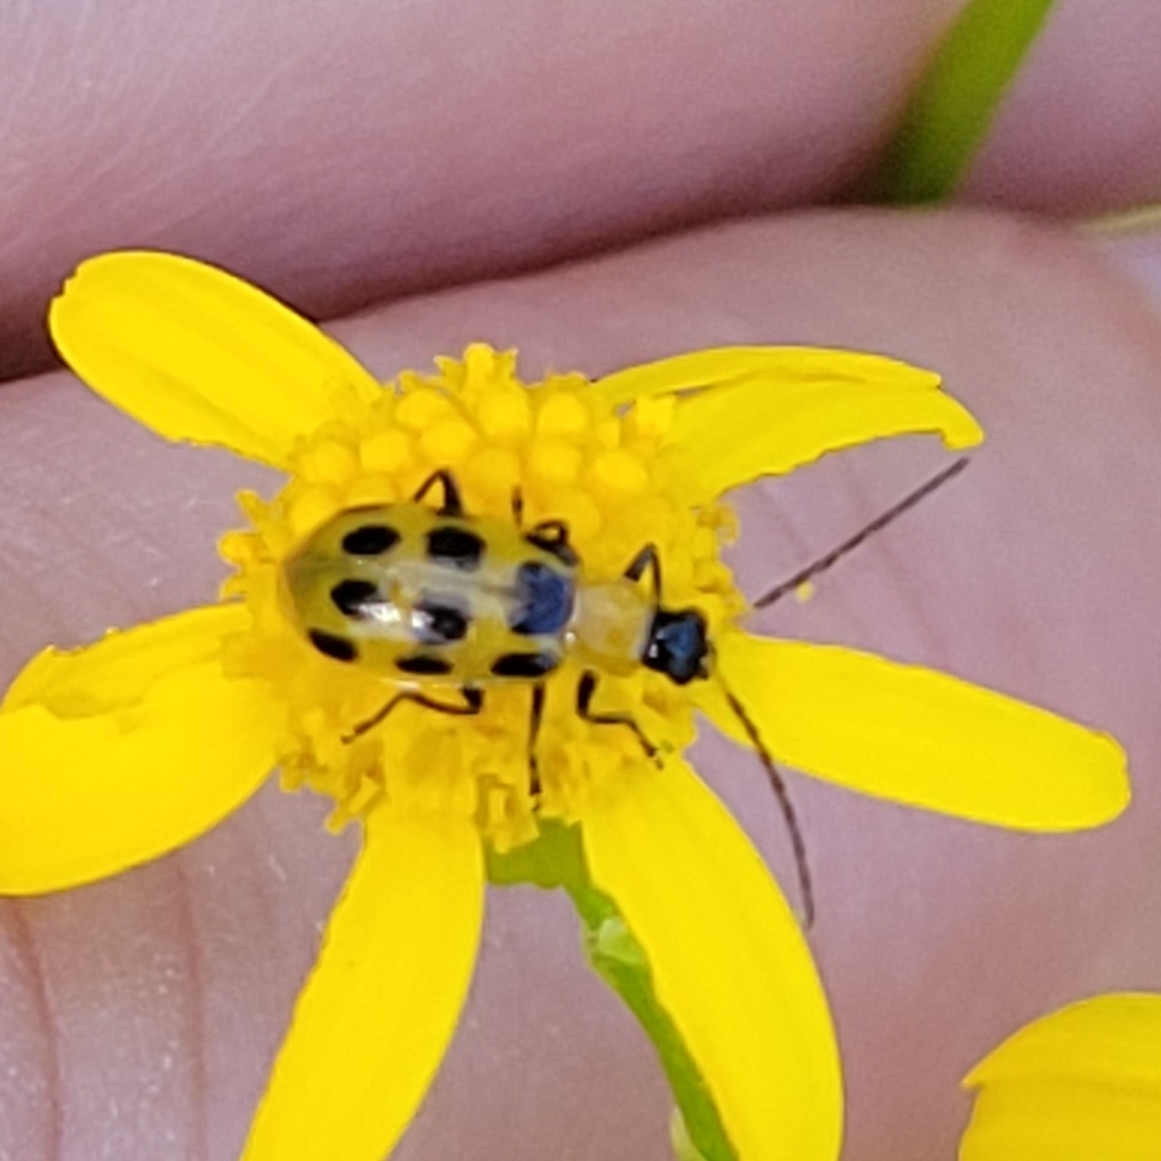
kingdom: Animalia
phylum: Arthropoda
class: Insecta
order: Coleoptera
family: Chrysomelidae
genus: Diabrotica
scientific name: Diabrotica undecimpunctata
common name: Spotted cucumber beetle
